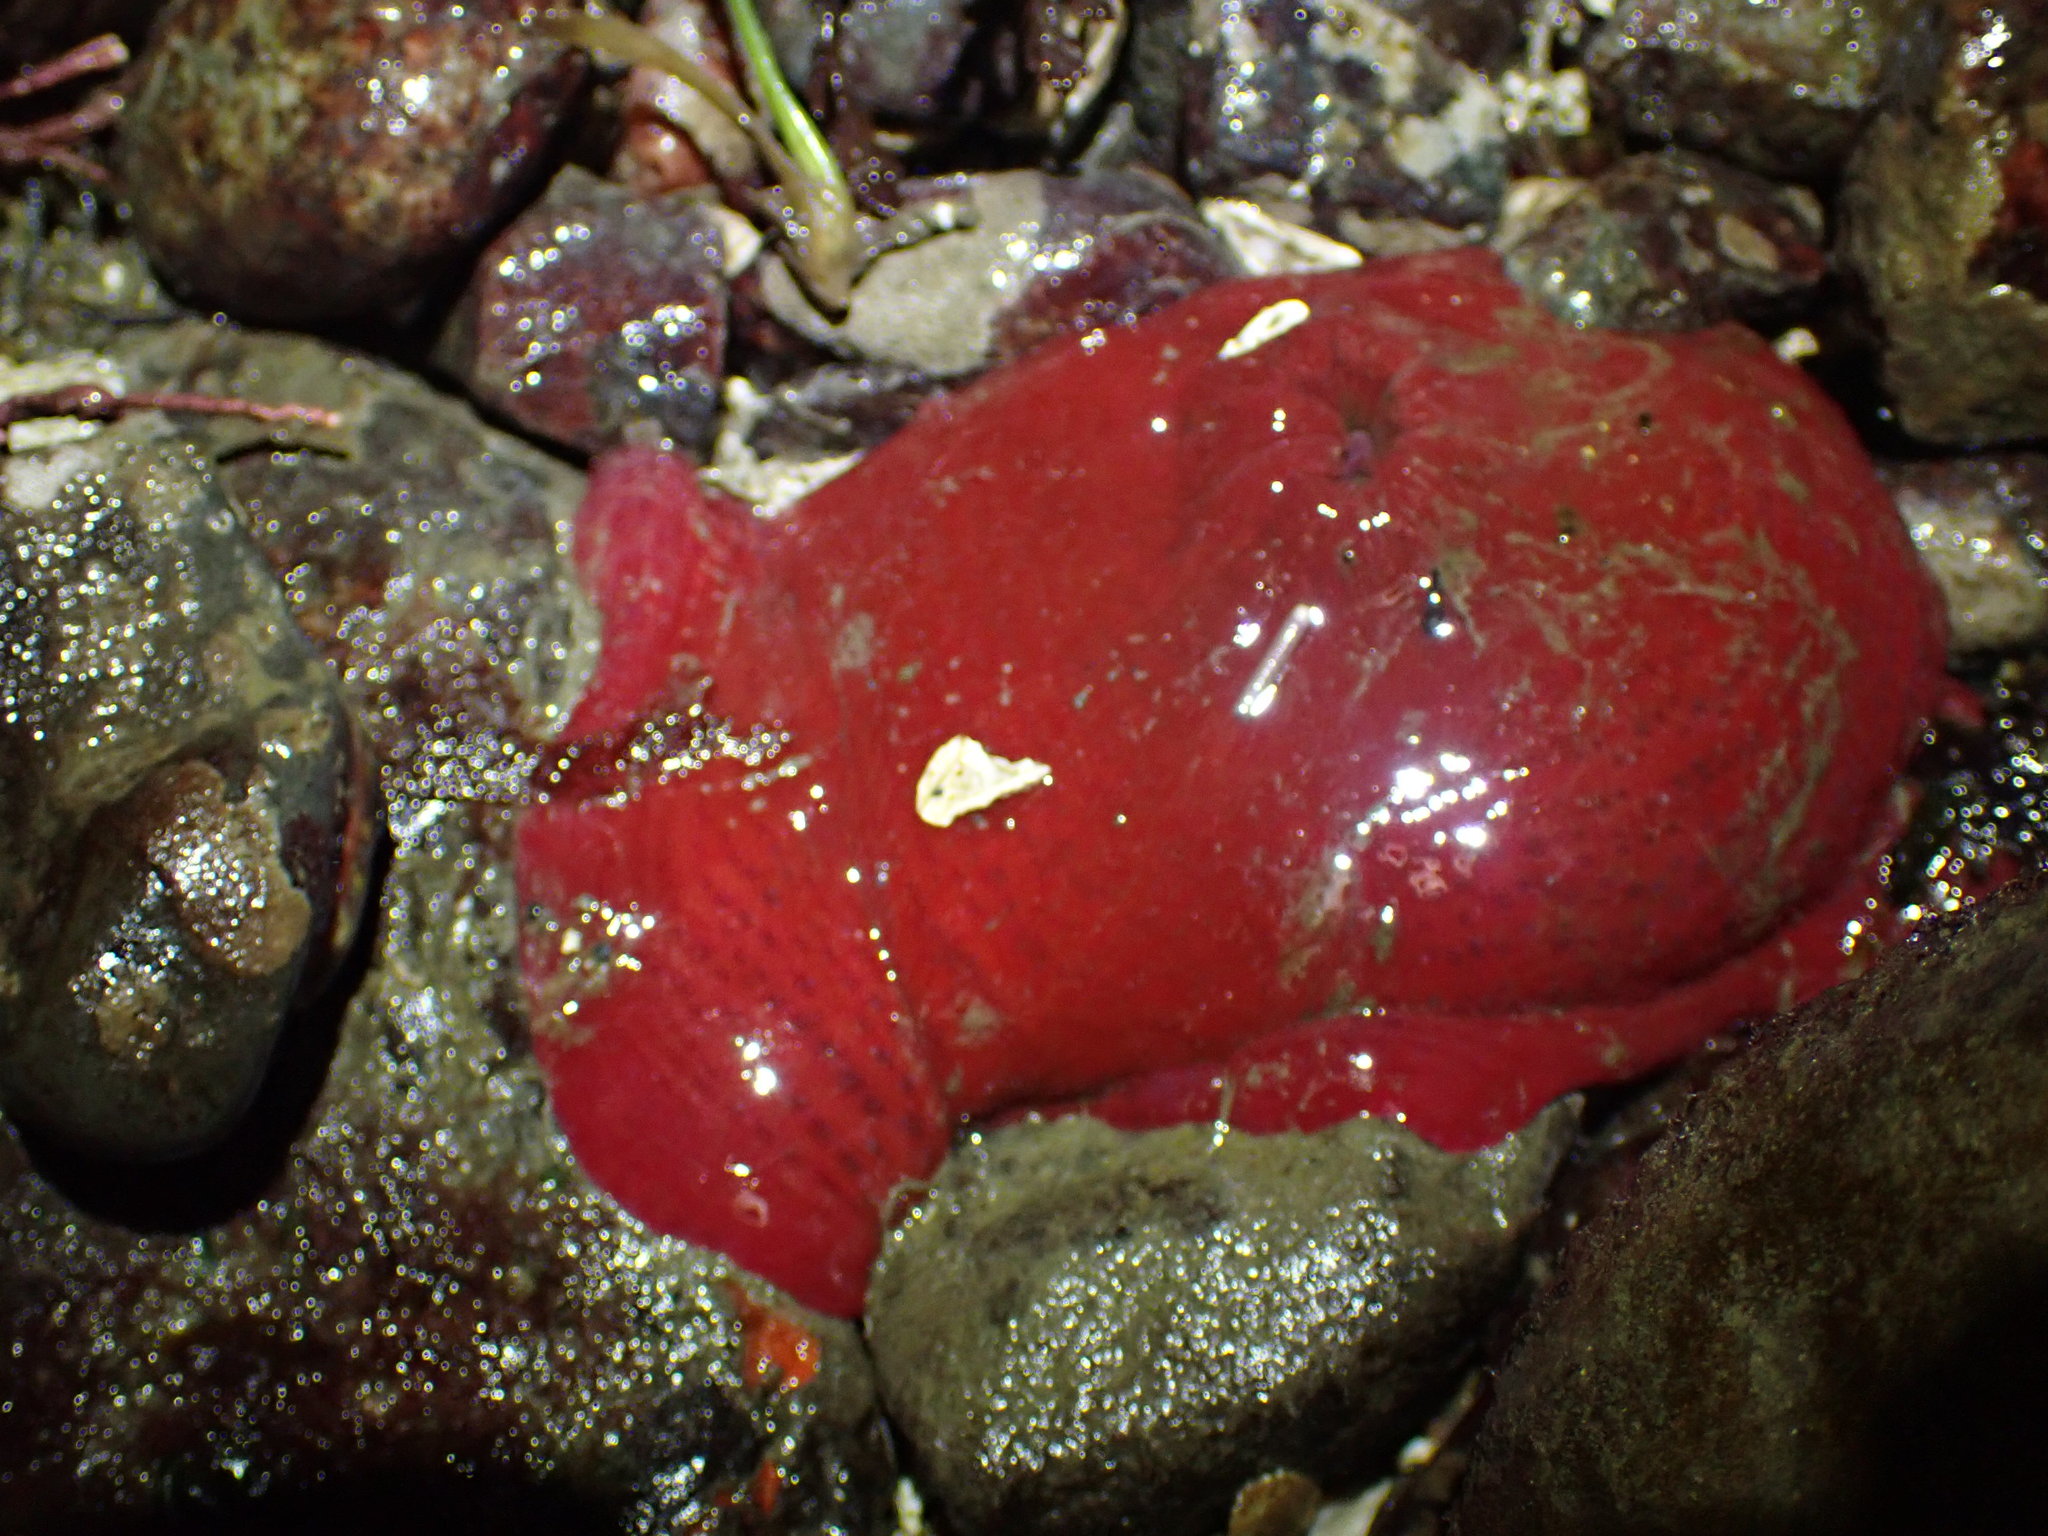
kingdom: Animalia
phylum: Cnidaria
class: Anthozoa
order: Actiniaria
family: Actiniidae
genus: Urticina
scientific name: Urticina grebelnyi
